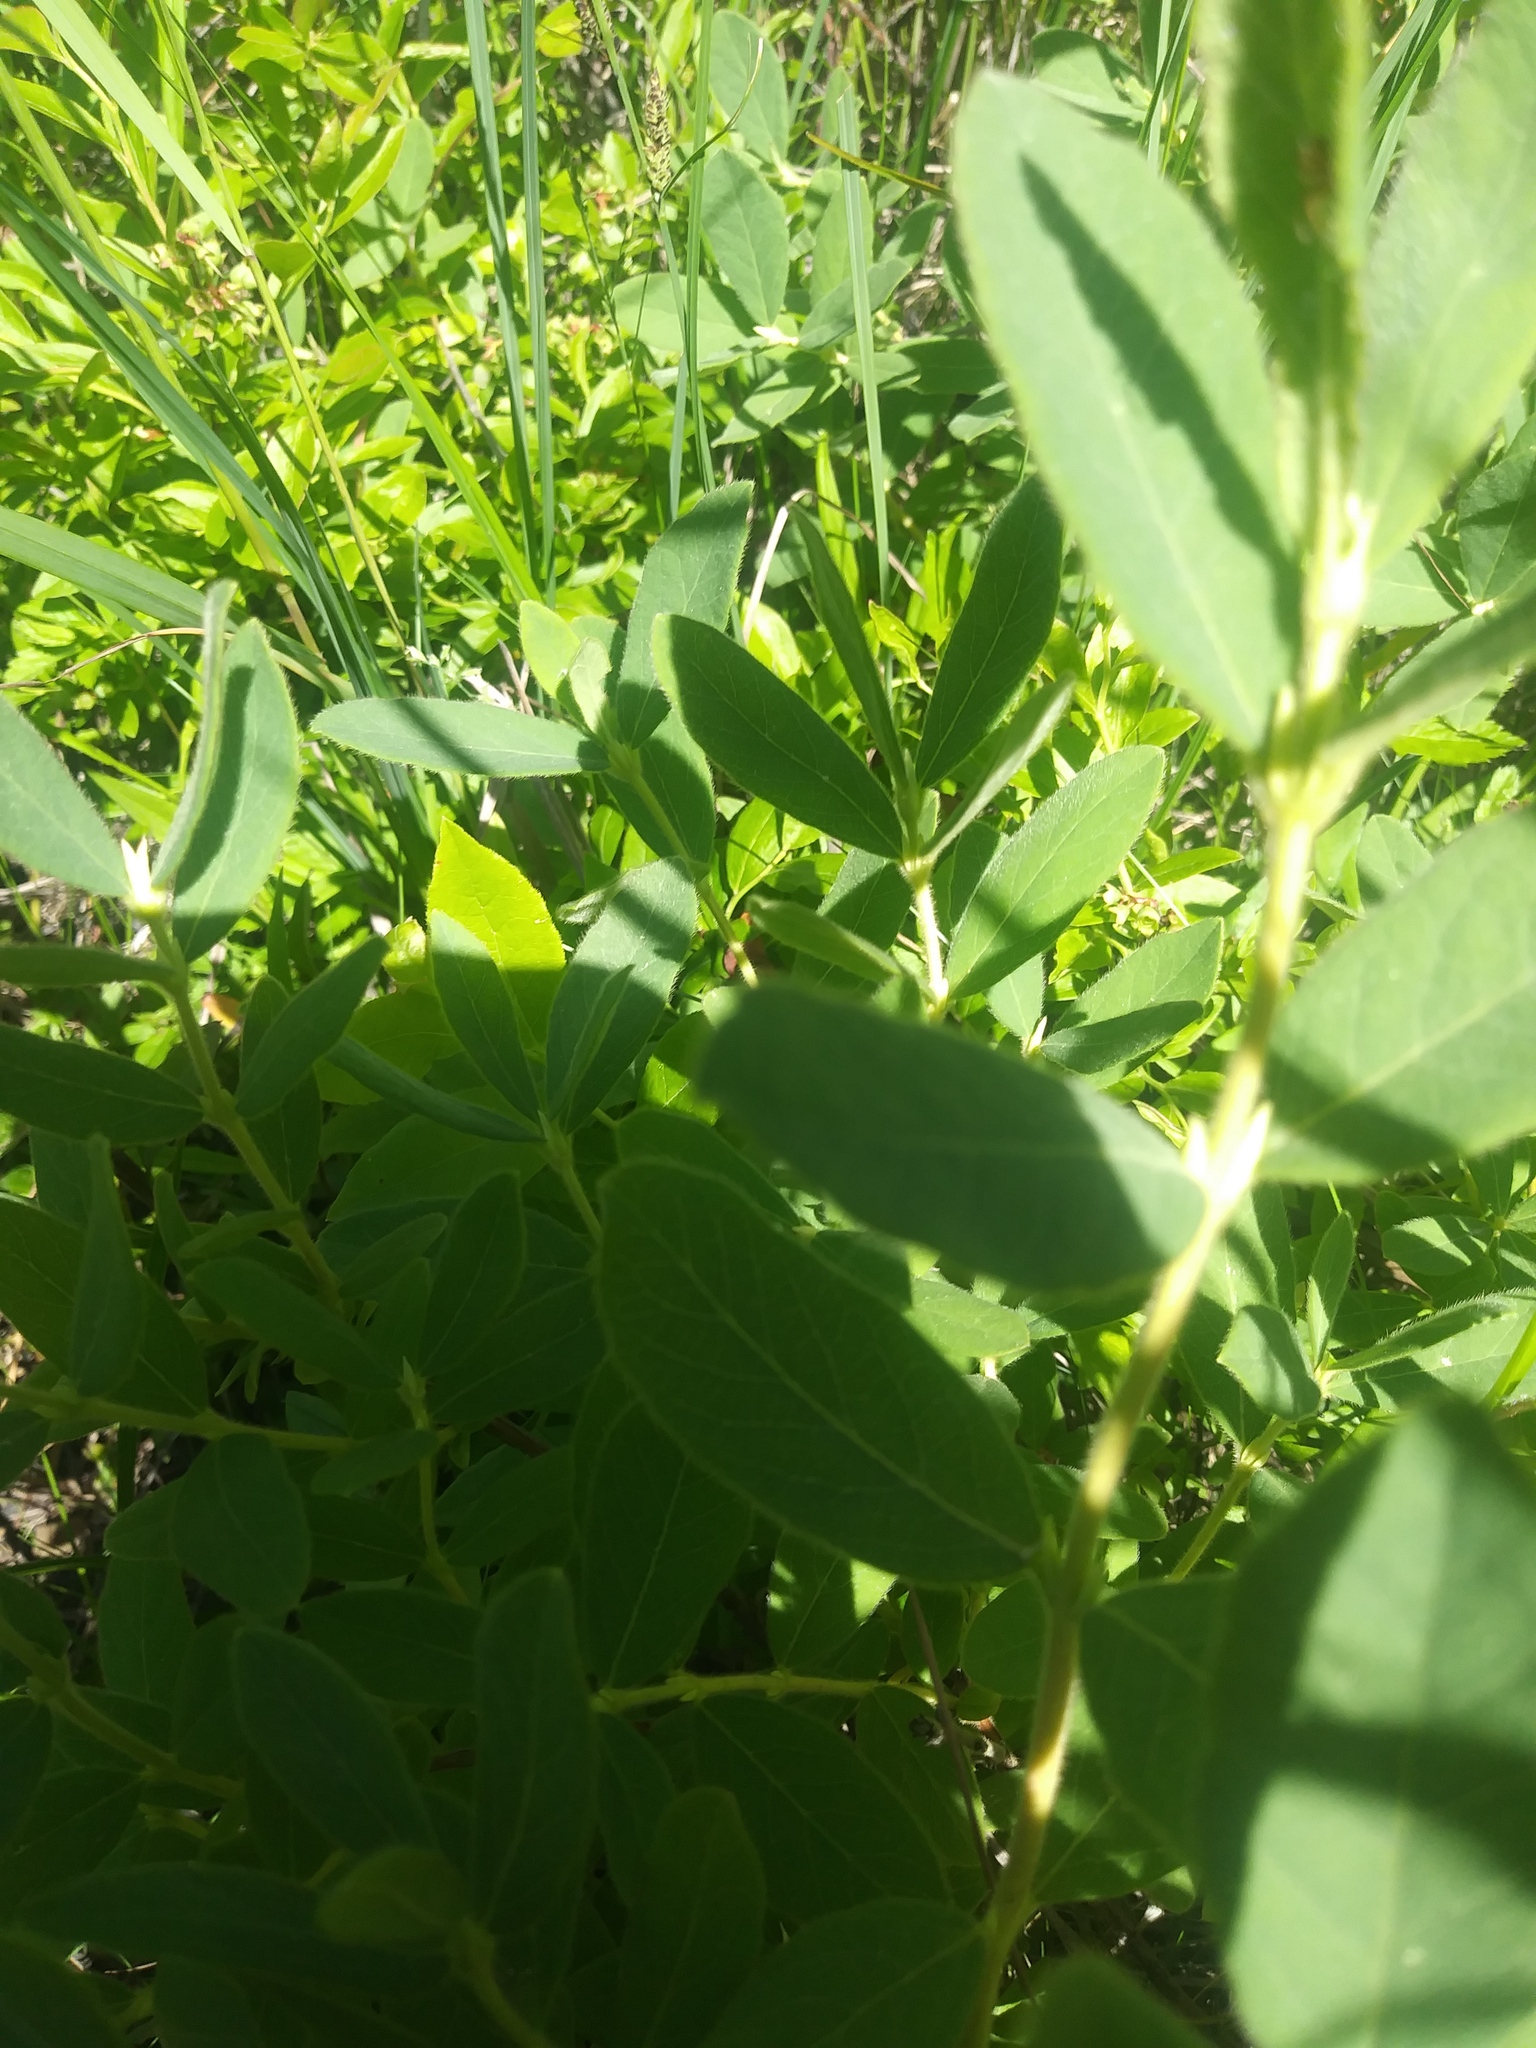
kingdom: Plantae
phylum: Tracheophyta
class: Magnoliopsida
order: Dipsacales
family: Caprifoliaceae
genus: Lonicera
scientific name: Lonicera villosa
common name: Mountain fly-honeysuckle
